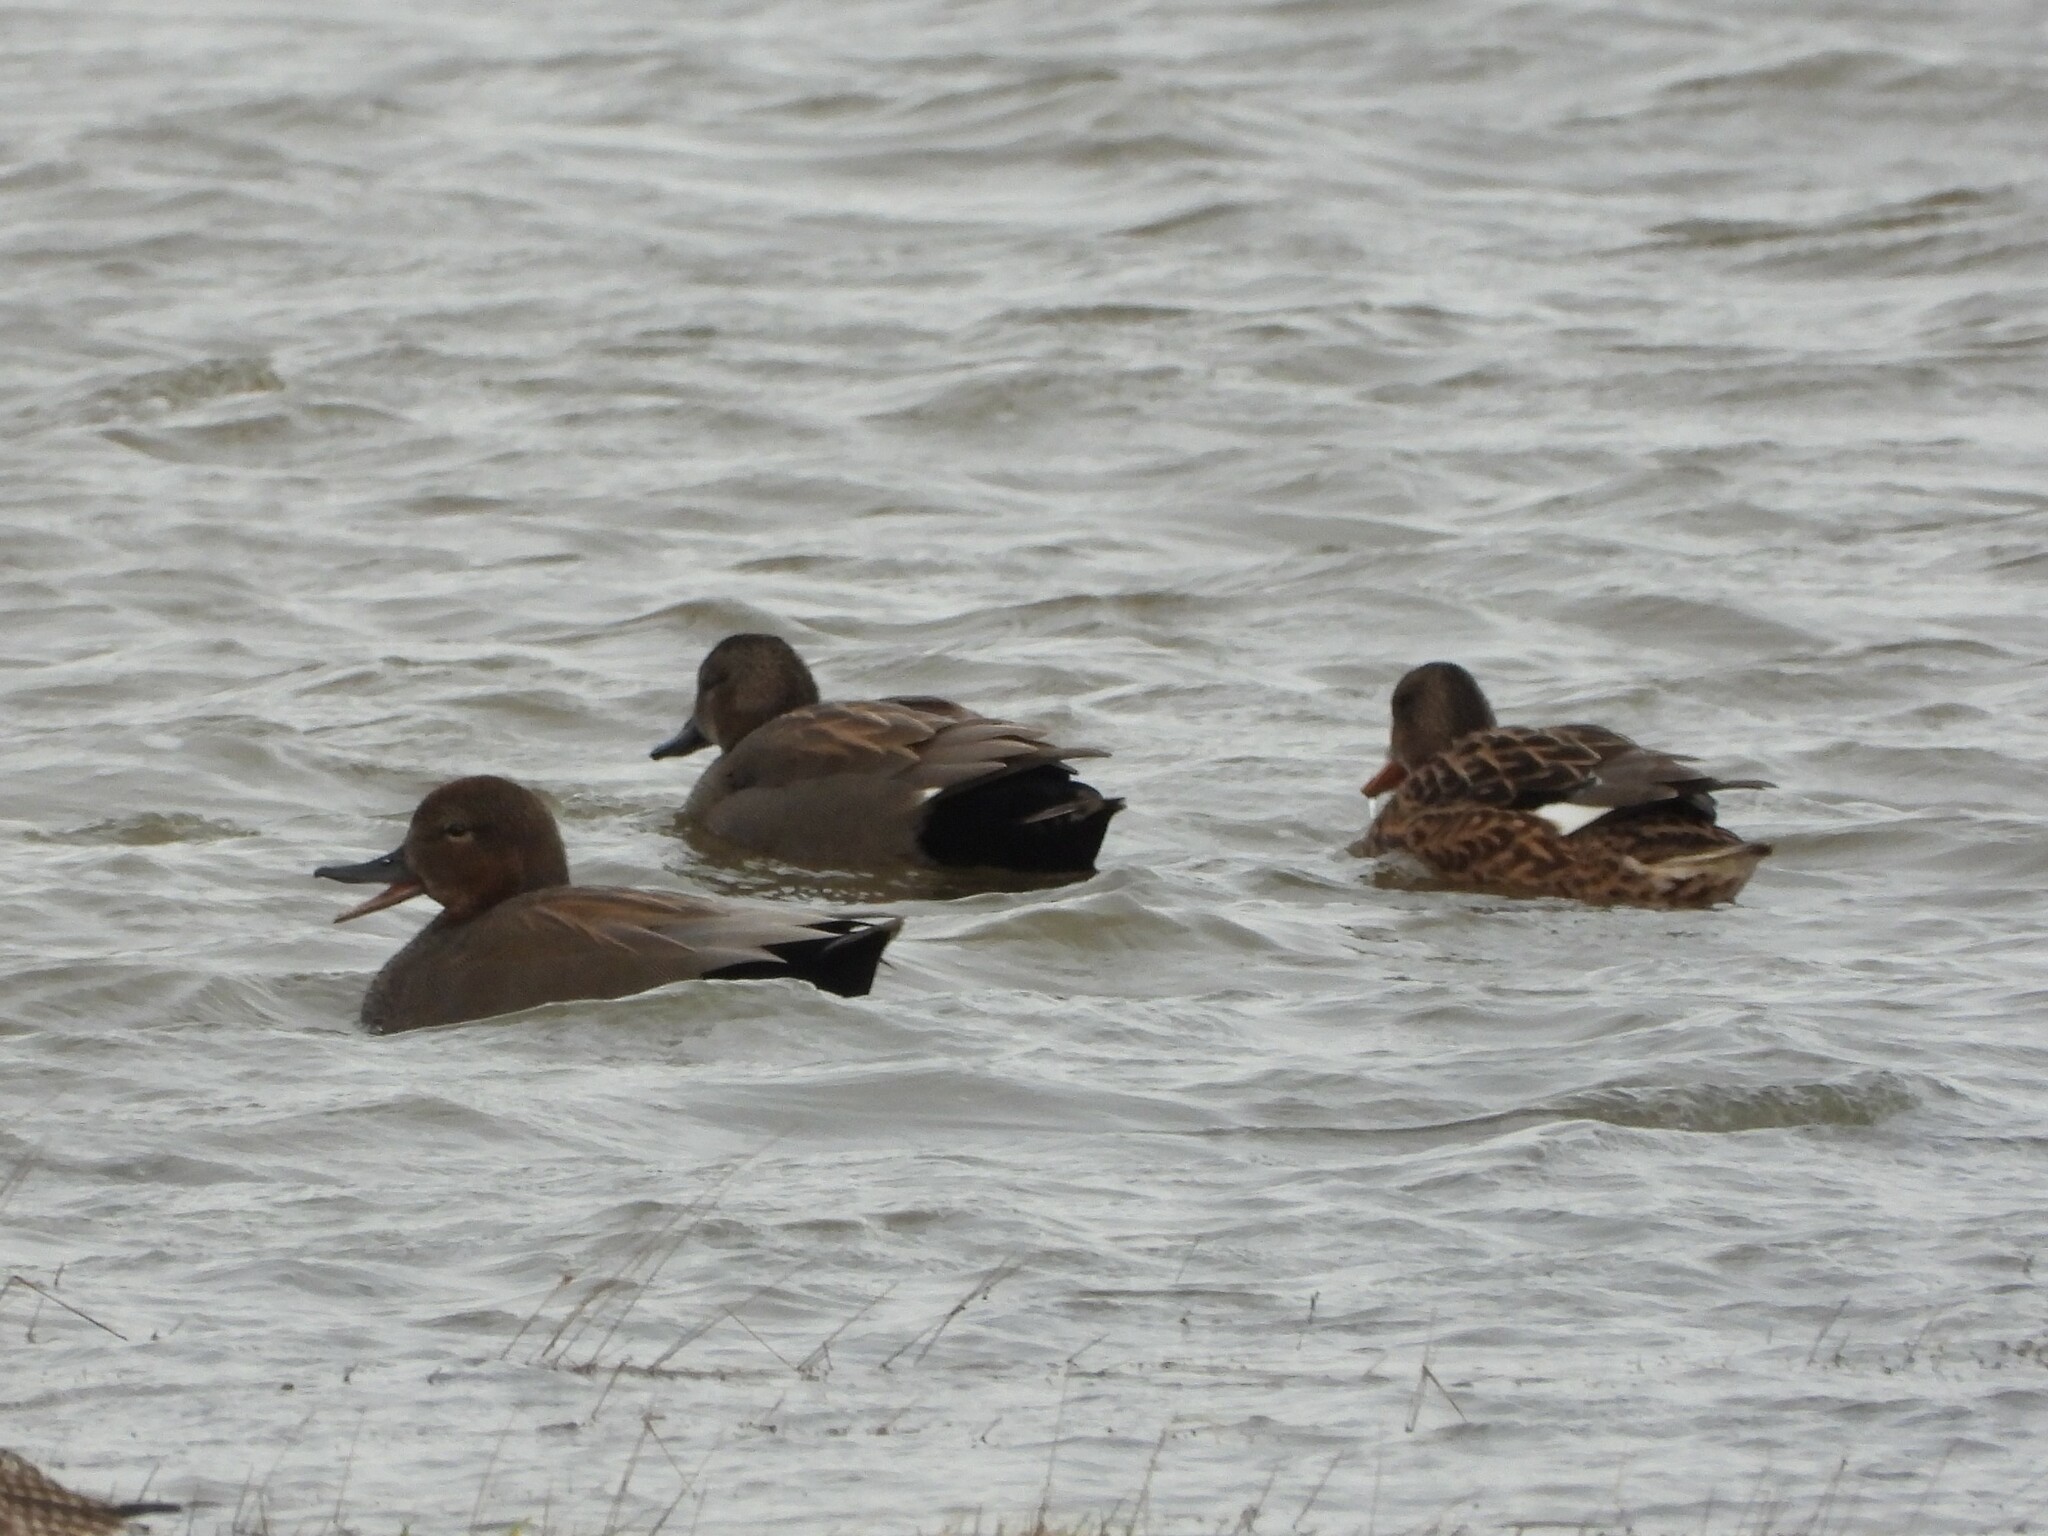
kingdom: Animalia
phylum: Chordata
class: Aves
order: Anseriformes
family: Anatidae
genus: Mareca
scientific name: Mareca strepera
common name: Gadwall
